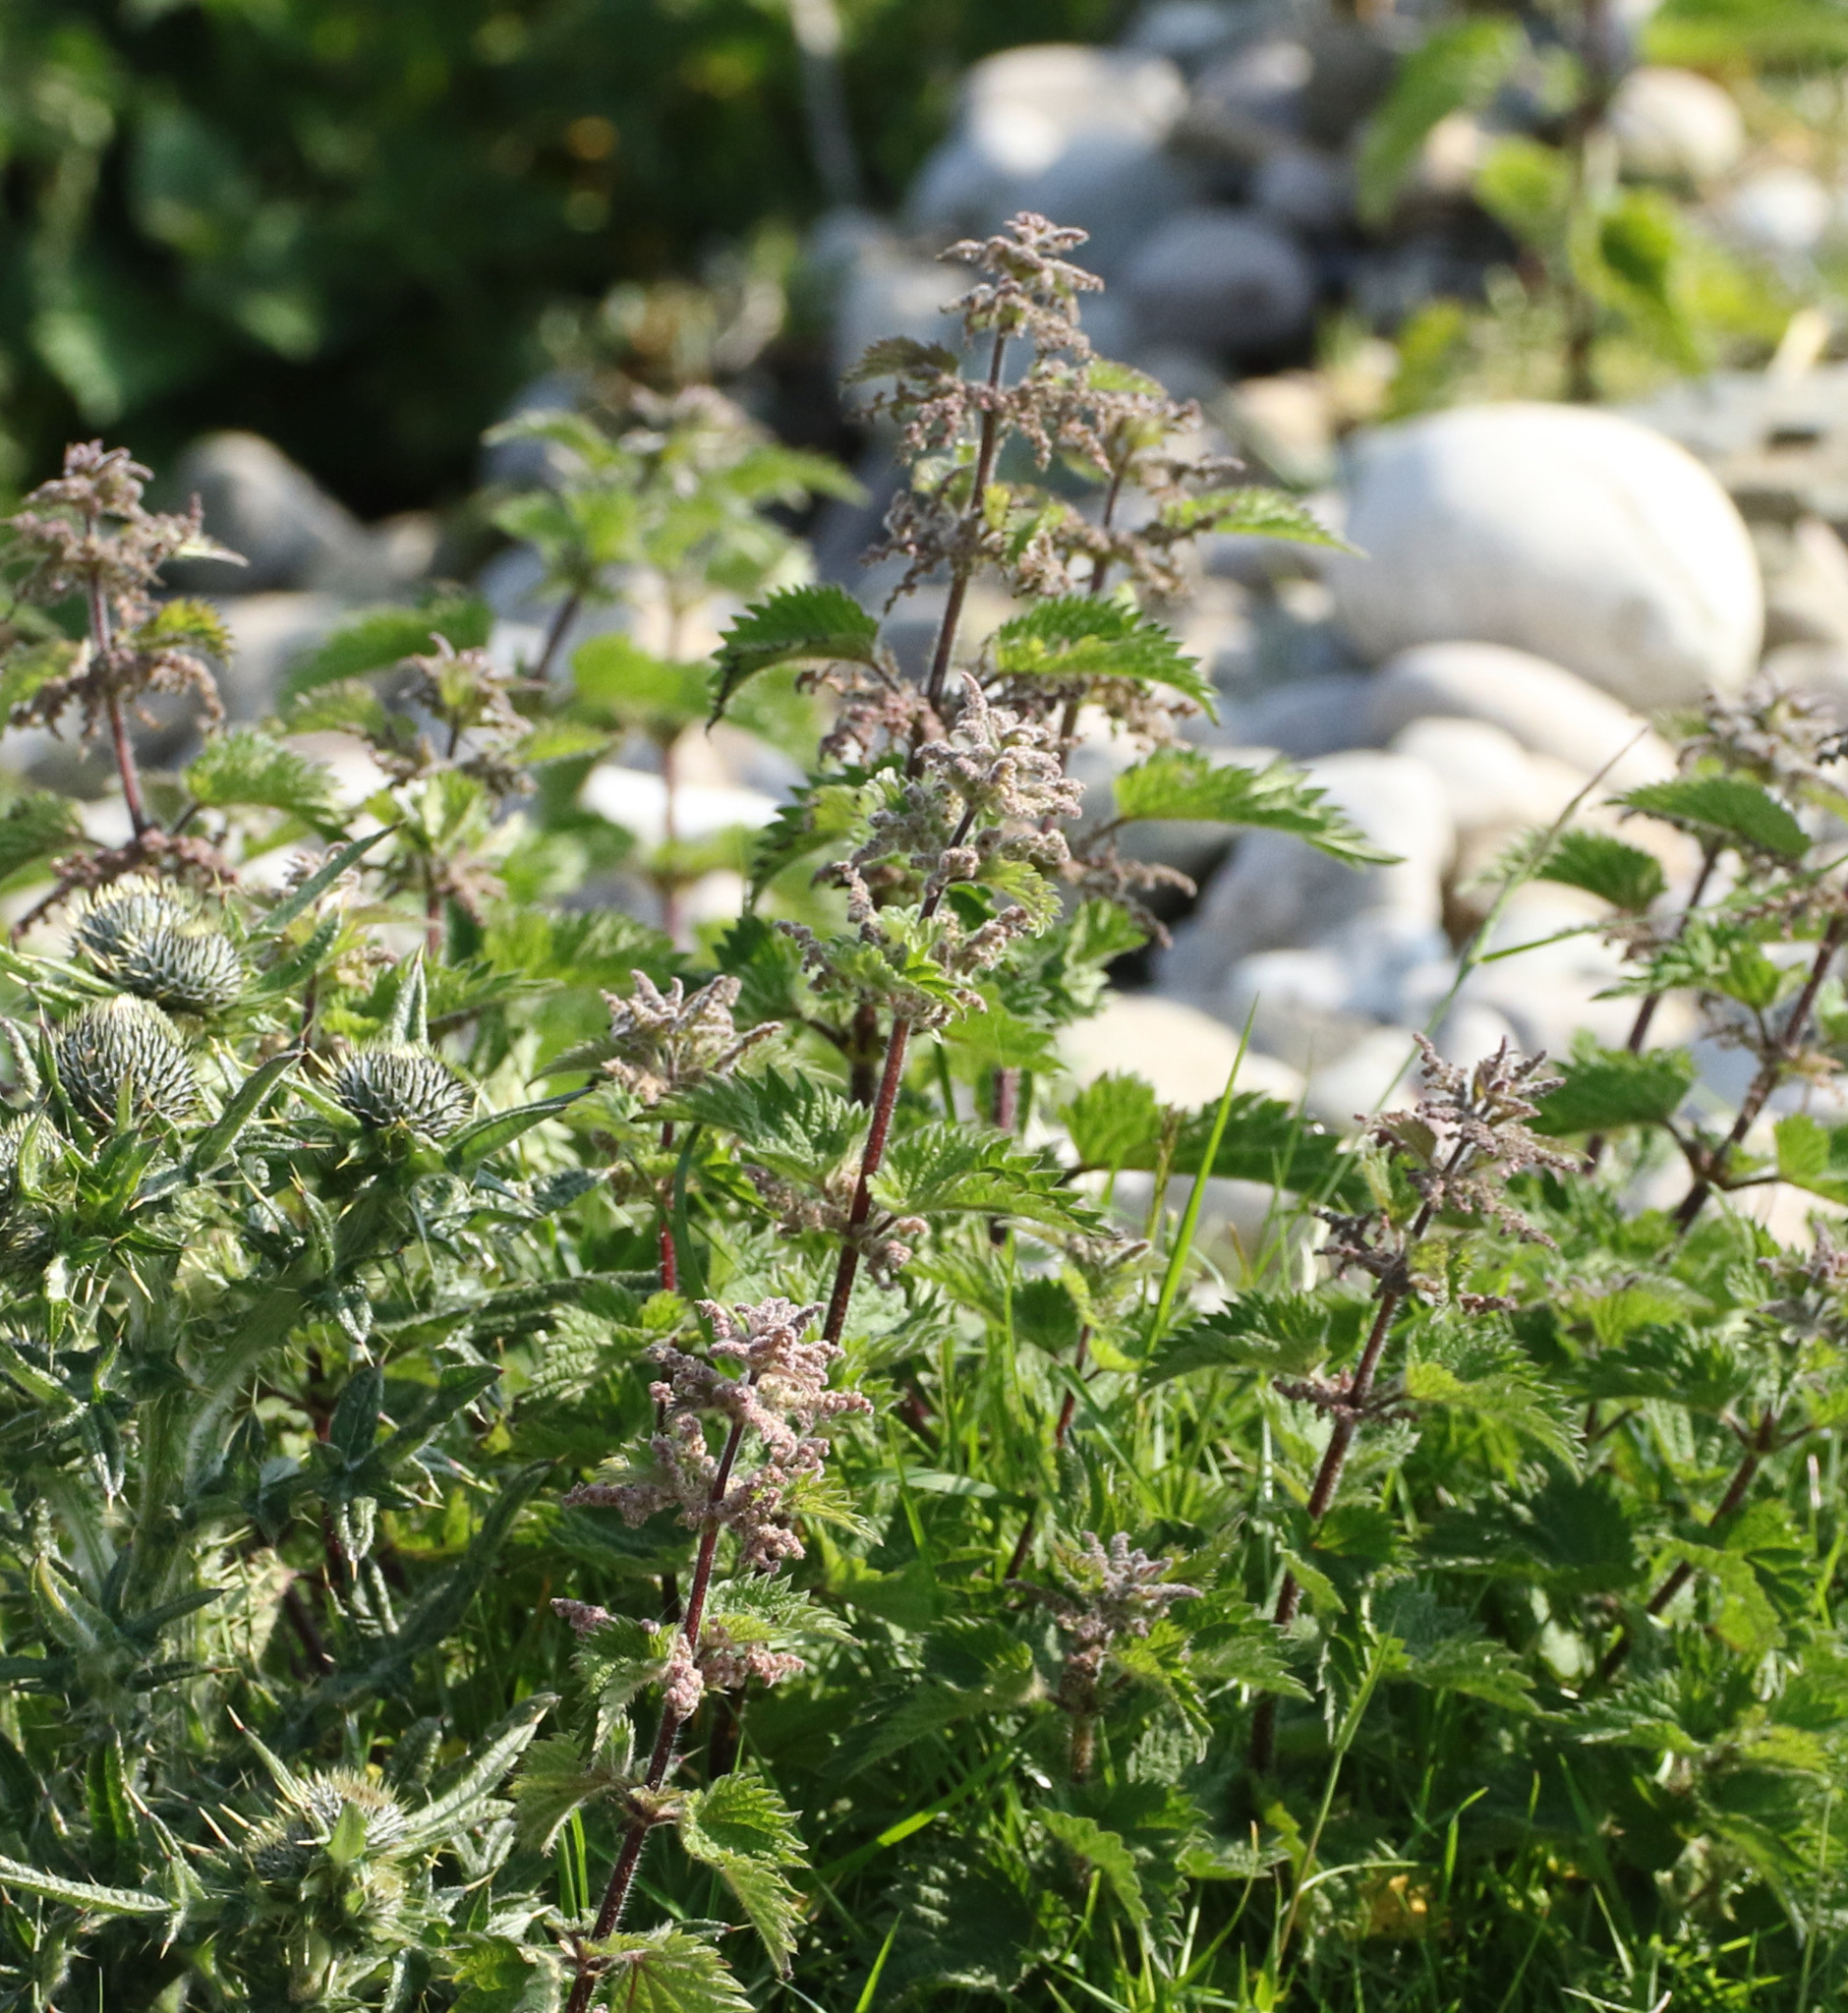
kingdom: Plantae
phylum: Tracheophyta
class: Magnoliopsida
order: Rosales
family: Urticaceae
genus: Urtica
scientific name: Urtica dioica
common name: Common nettle
